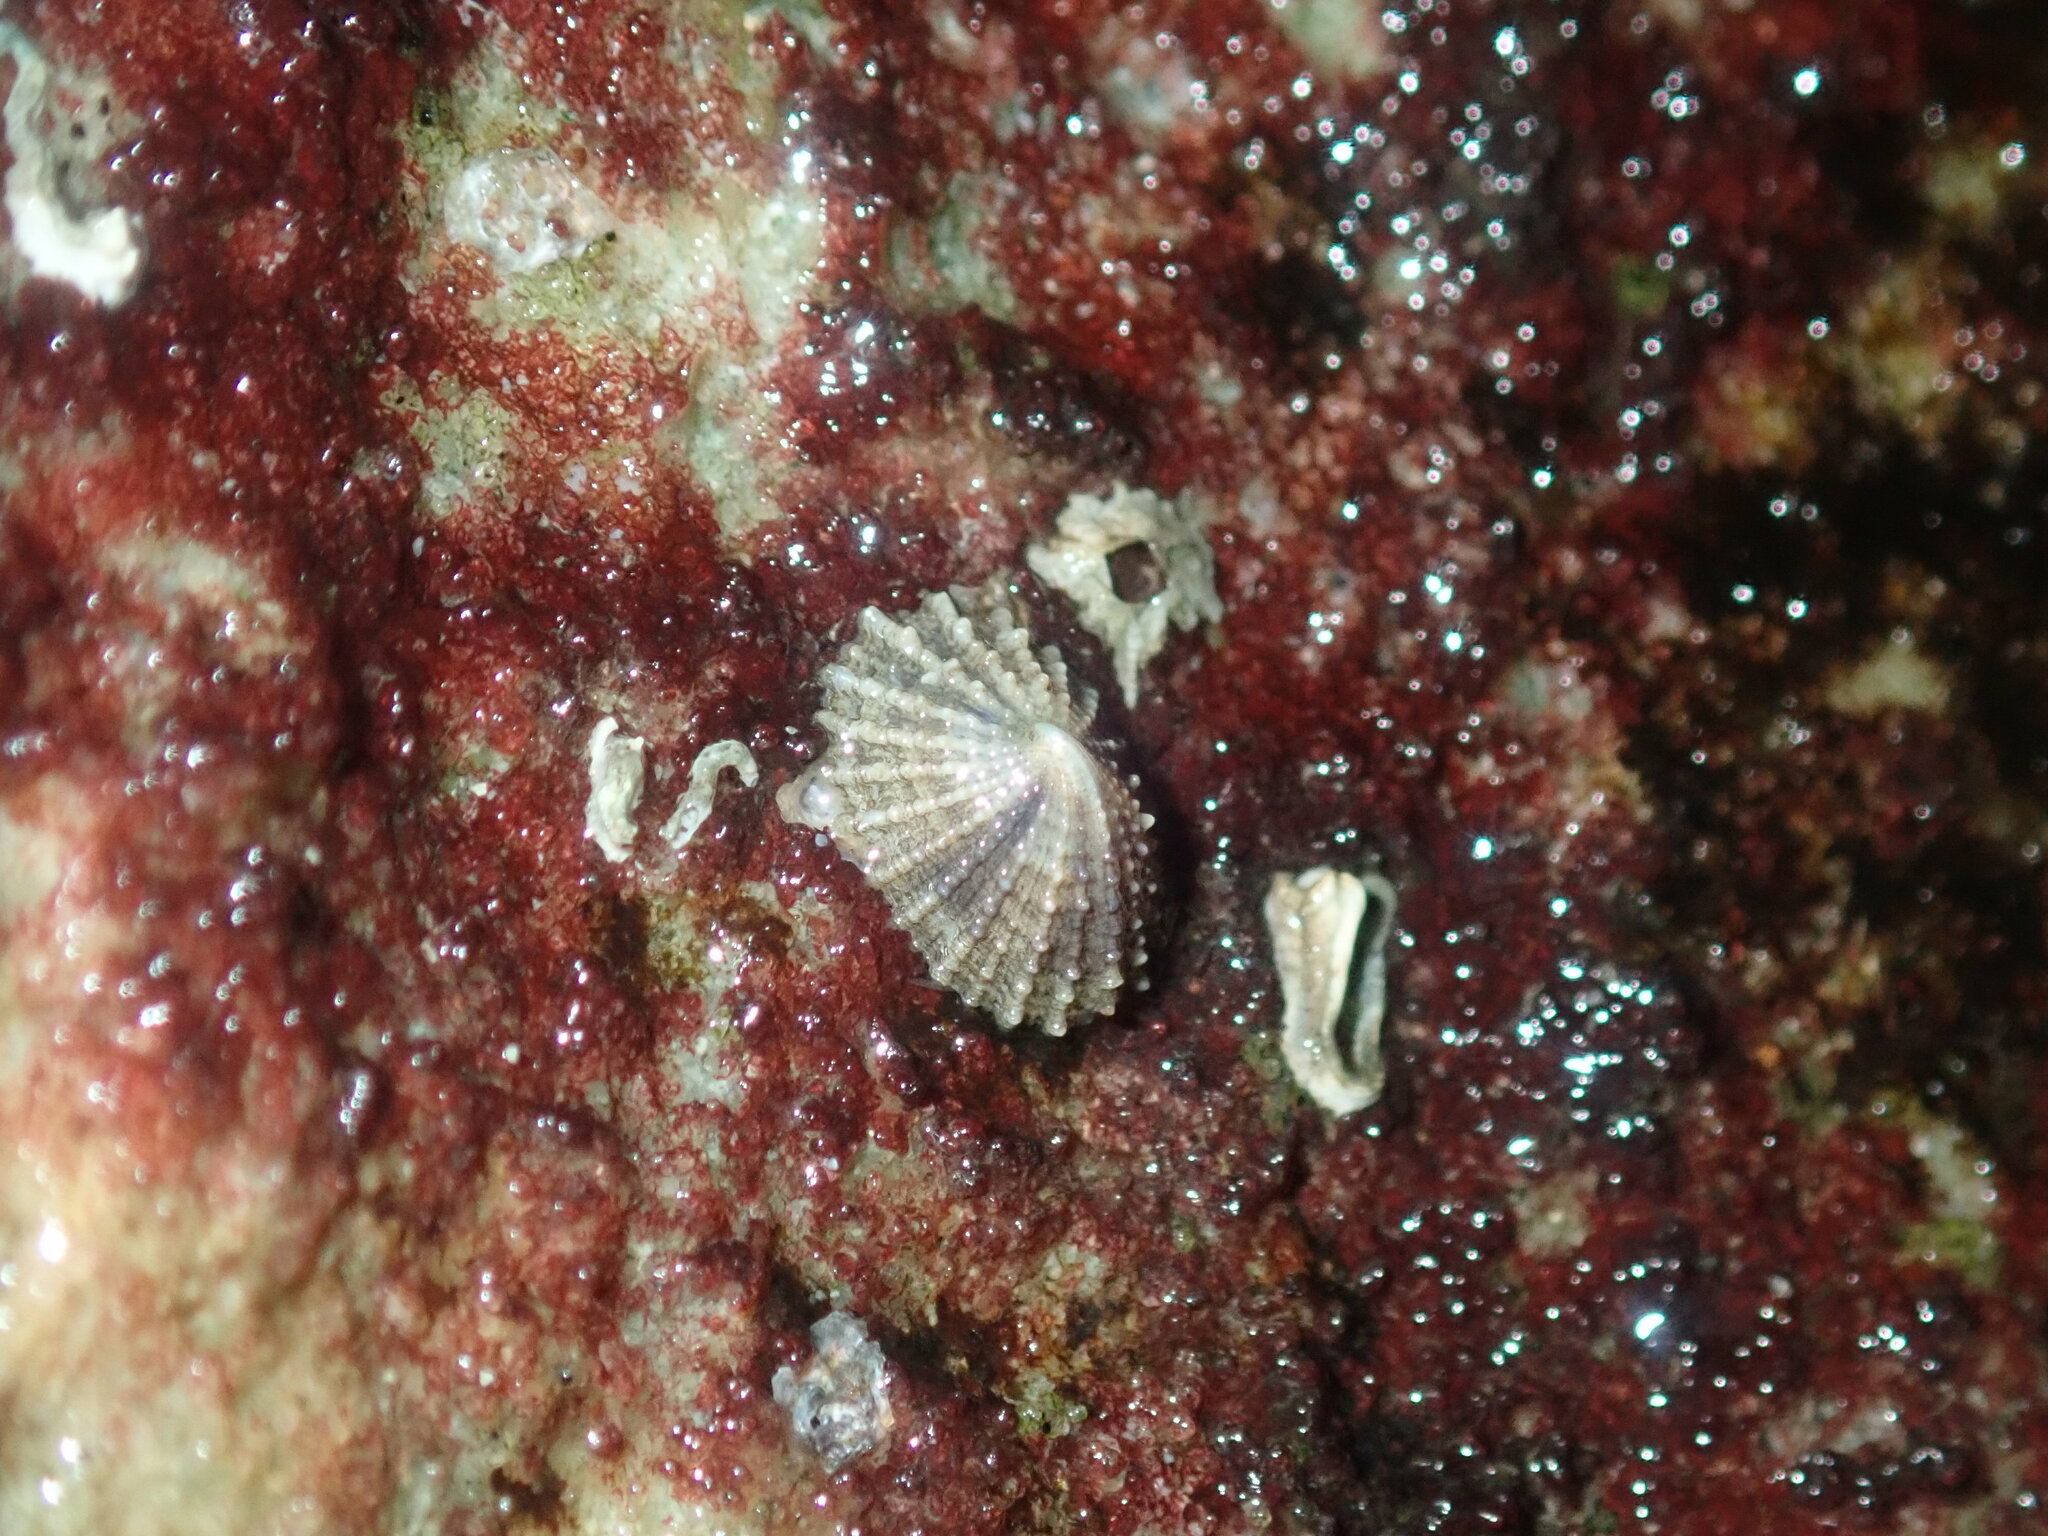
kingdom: Animalia
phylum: Mollusca
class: Gastropoda
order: Lepetellida
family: Fissurellidae
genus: Montfortula
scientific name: Montfortula rugosa
